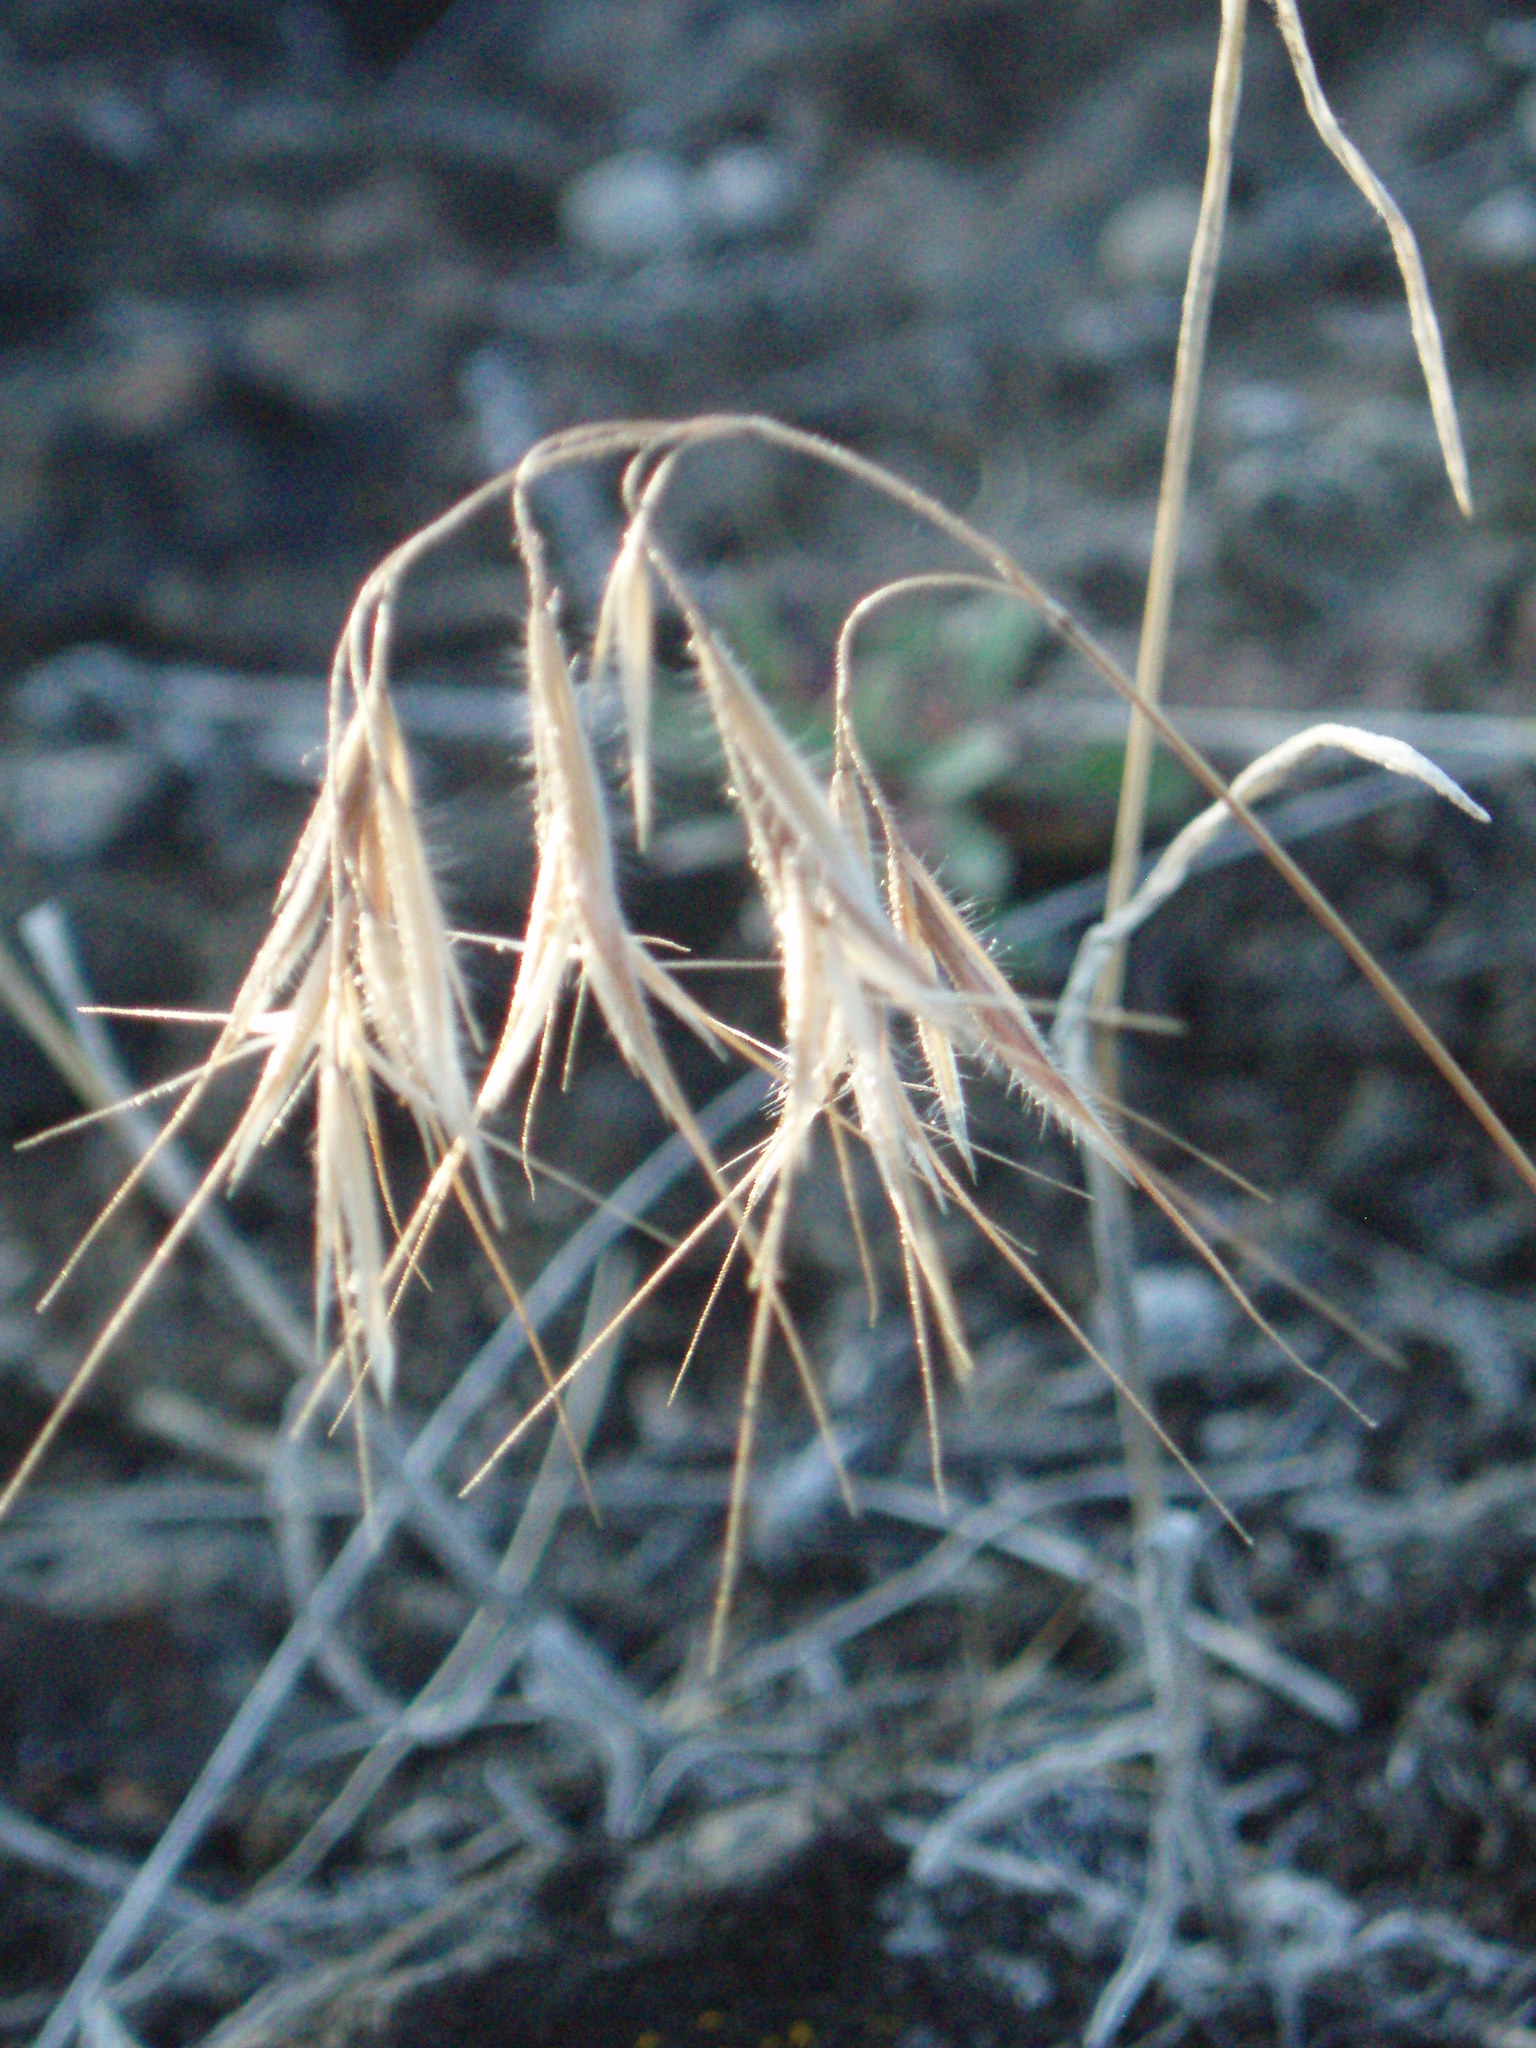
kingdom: Plantae
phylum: Tracheophyta
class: Liliopsida
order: Poales
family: Poaceae
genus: Bromus
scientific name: Bromus tectorum
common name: Cheatgrass
